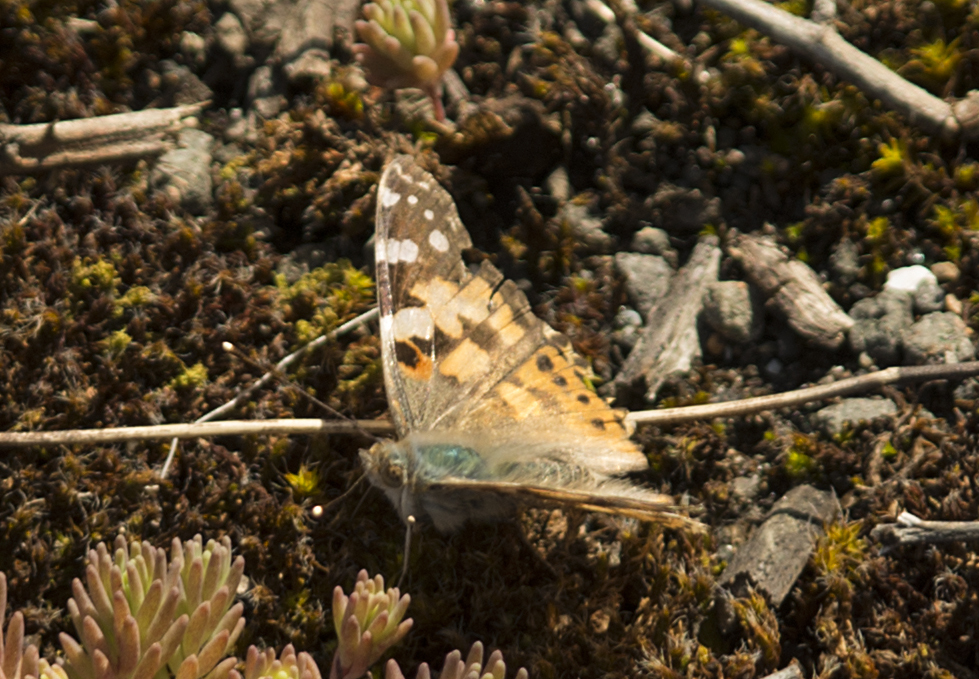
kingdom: Animalia
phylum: Arthropoda
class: Insecta
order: Lepidoptera
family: Nymphalidae
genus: Vanessa
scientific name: Vanessa cardui
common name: Painted lady
